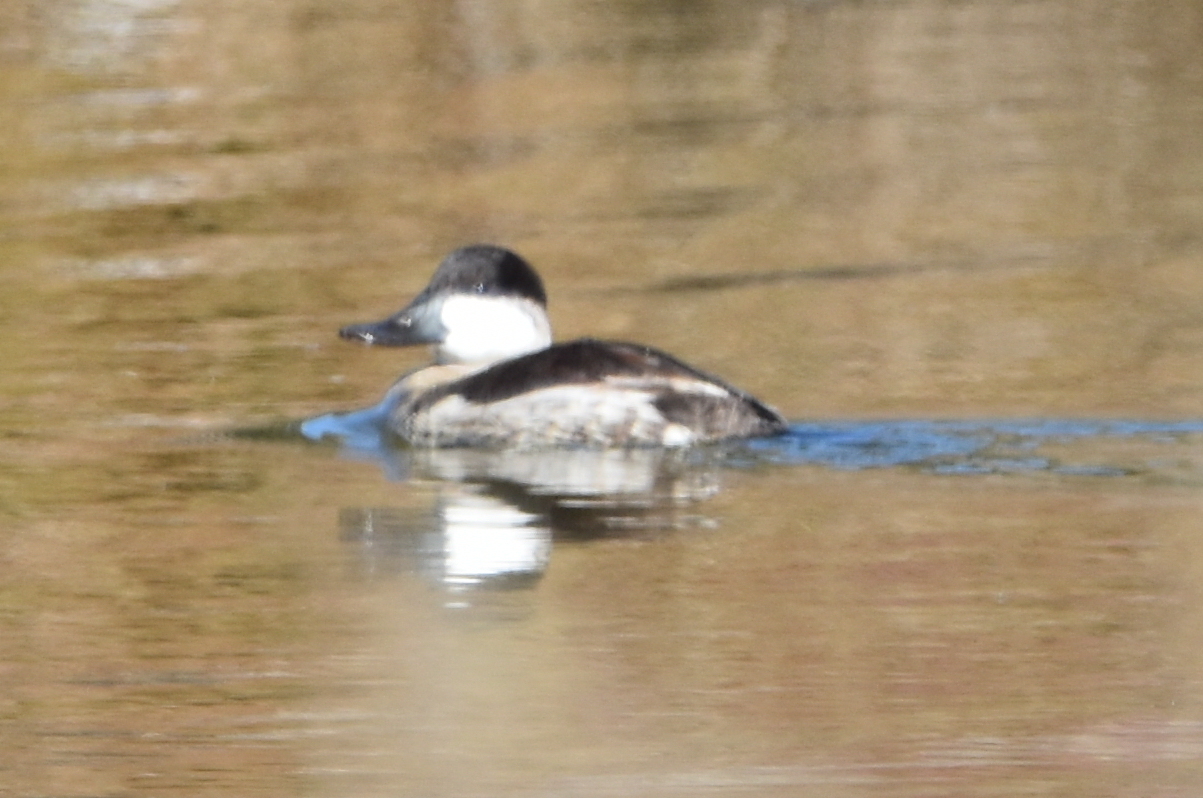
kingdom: Animalia
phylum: Chordata
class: Aves
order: Anseriformes
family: Anatidae
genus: Oxyura
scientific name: Oxyura jamaicensis
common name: Ruddy duck
